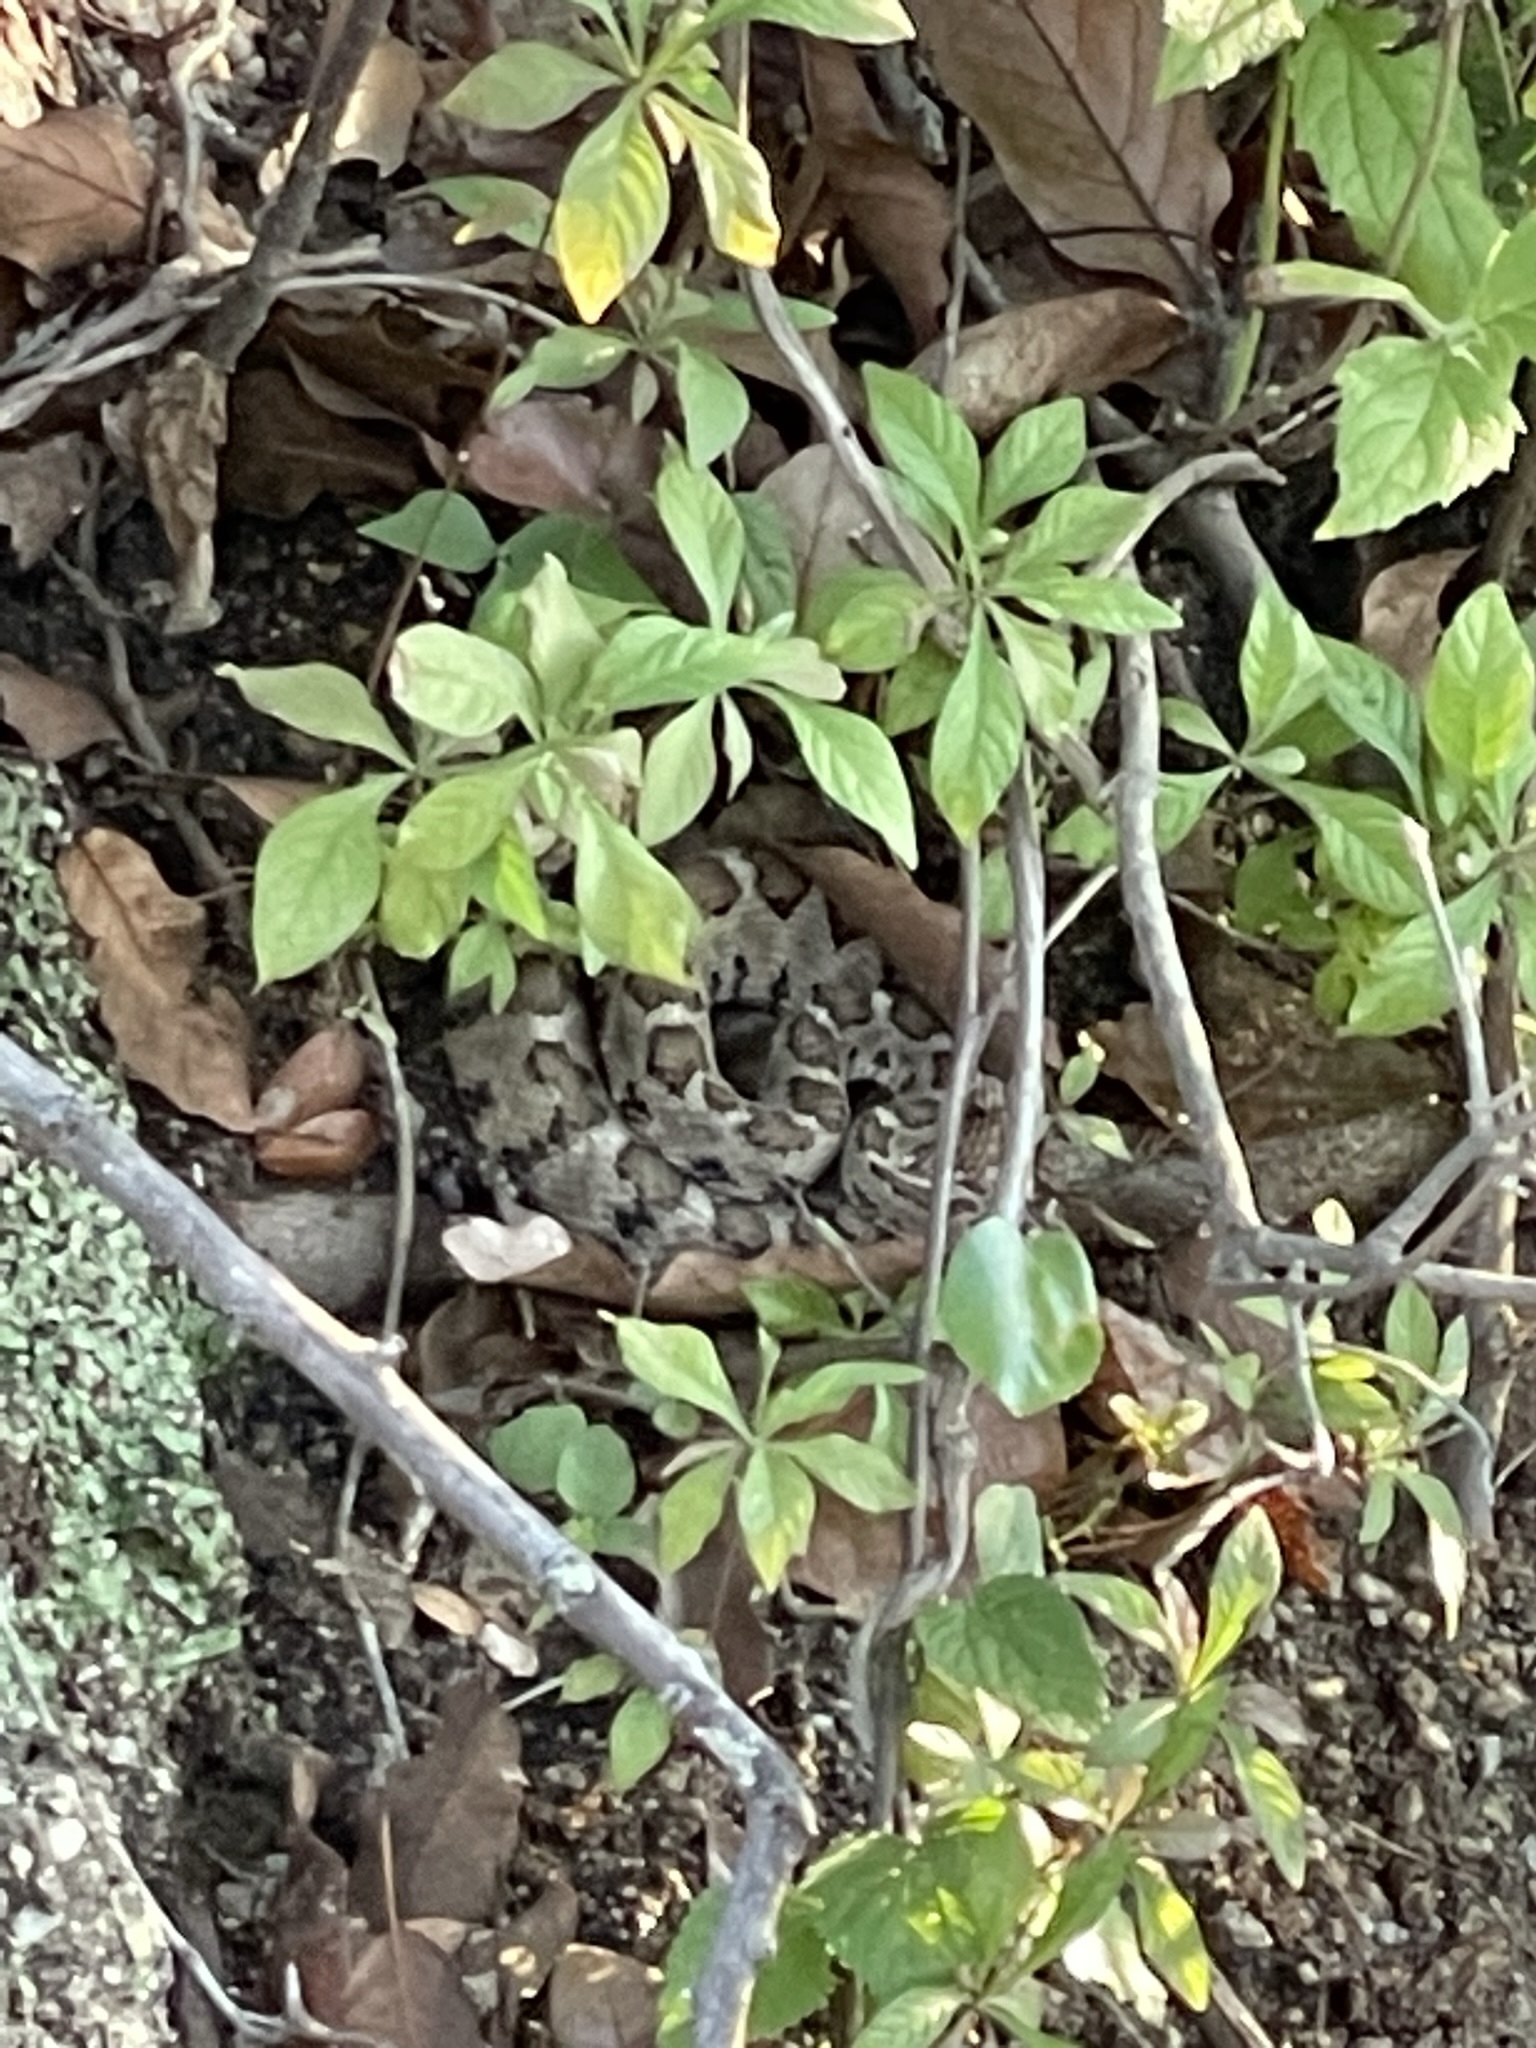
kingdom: Animalia
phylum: Chordata
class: Squamata
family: Viperidae
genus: Crotalus
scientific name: Crotalus enyo
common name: Lower california rattlesnake
